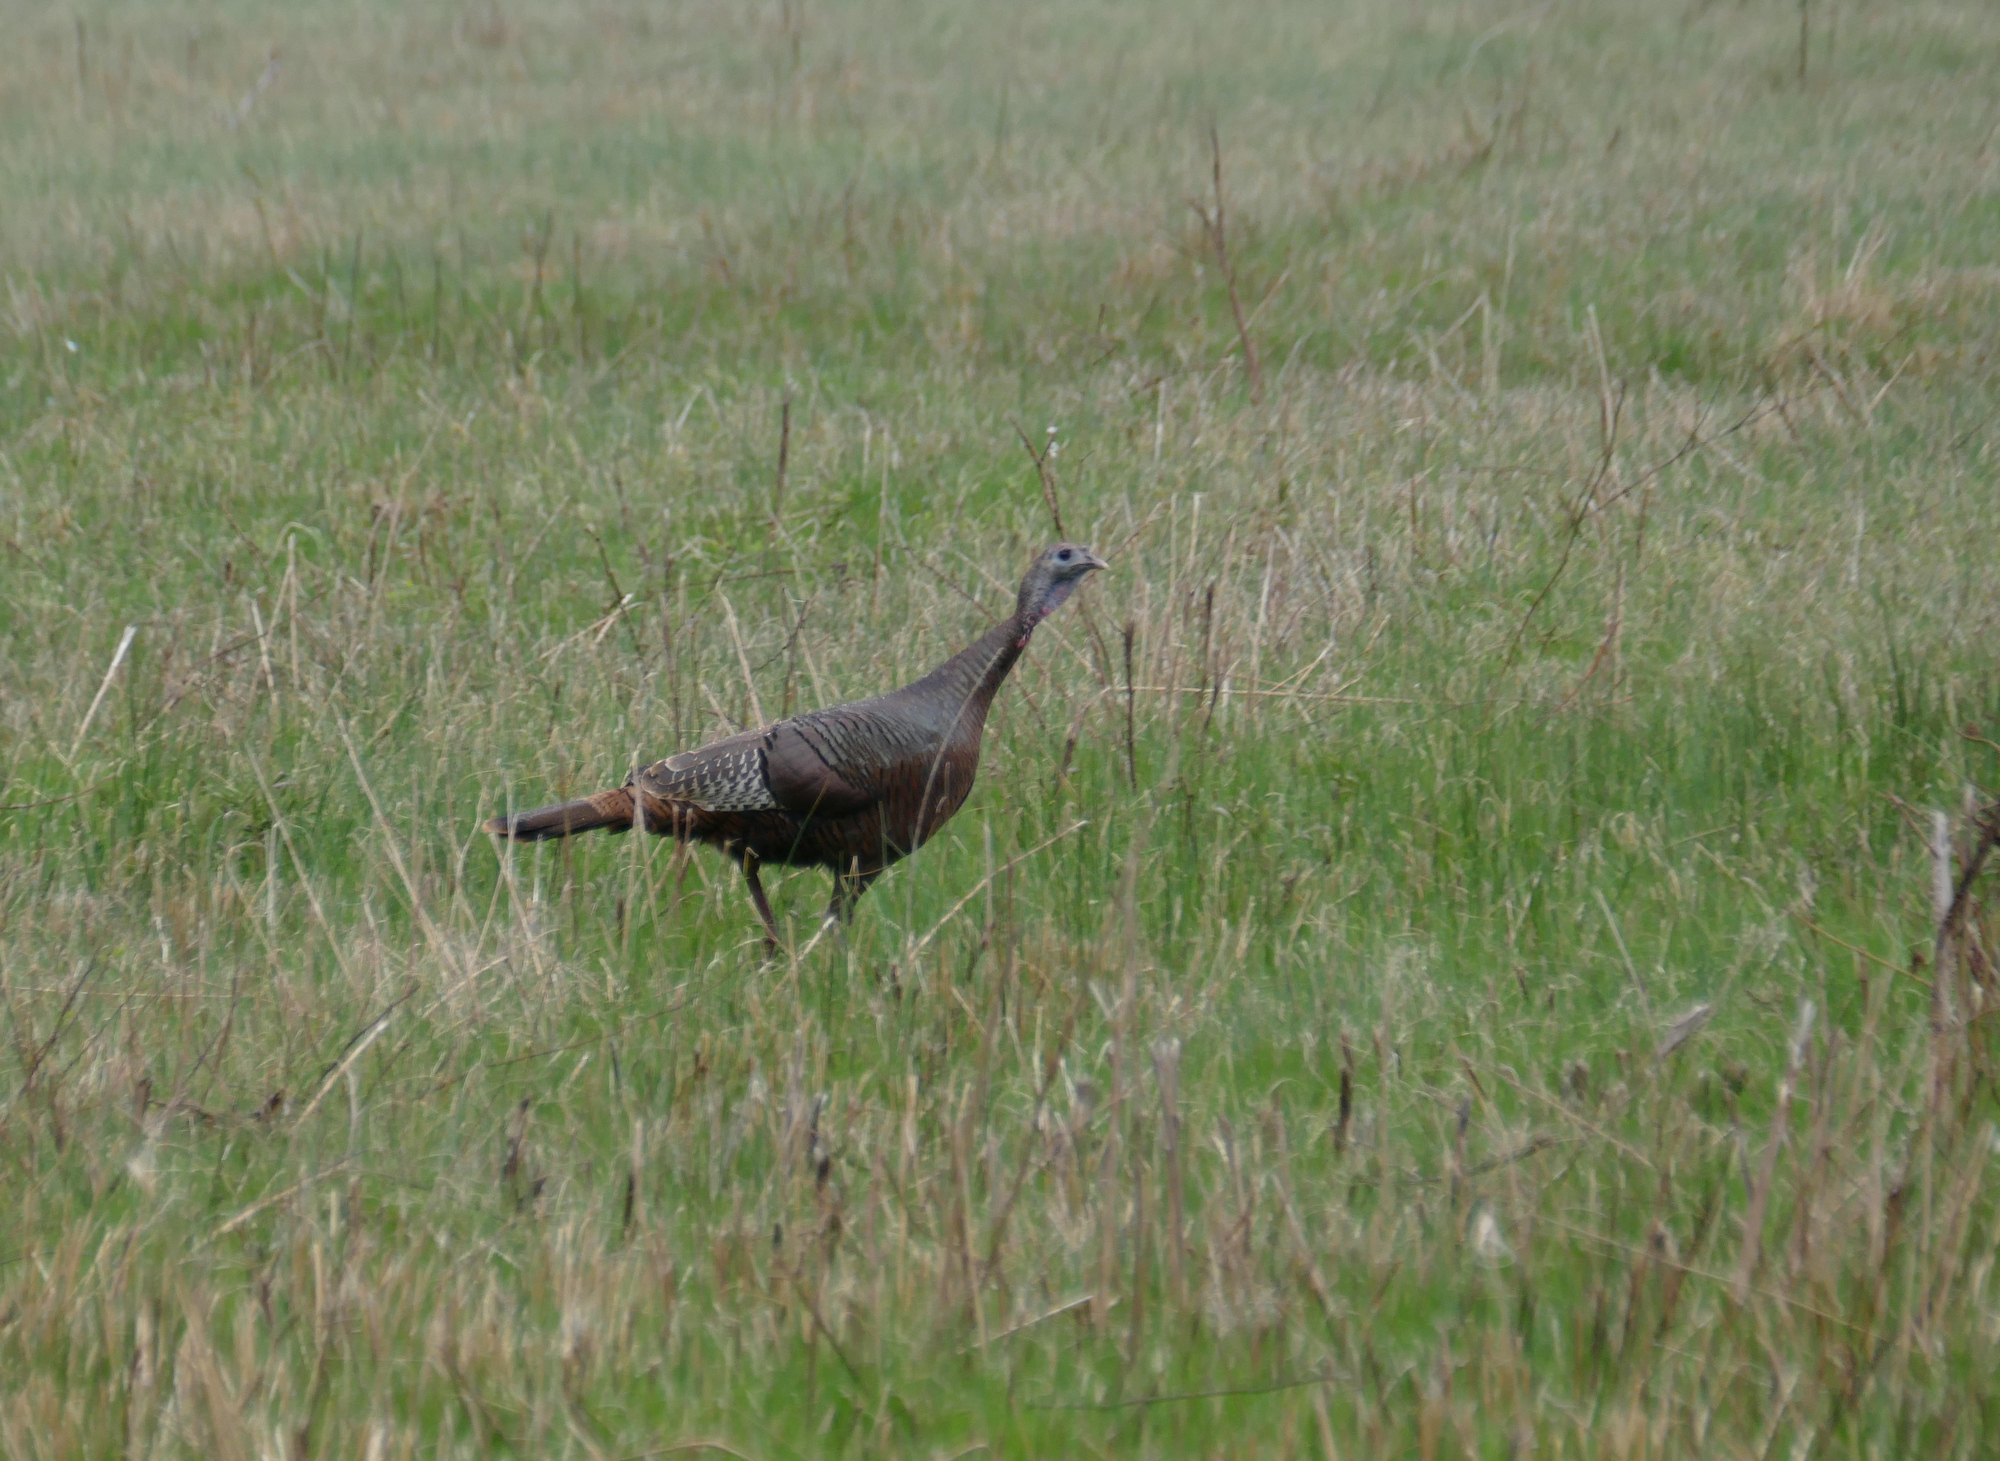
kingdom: Animalia
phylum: Chordata
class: Aves
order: Galliformes
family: Phasianidae
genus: Meleagris
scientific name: Meleagris gallopavo
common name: Wild turkey
